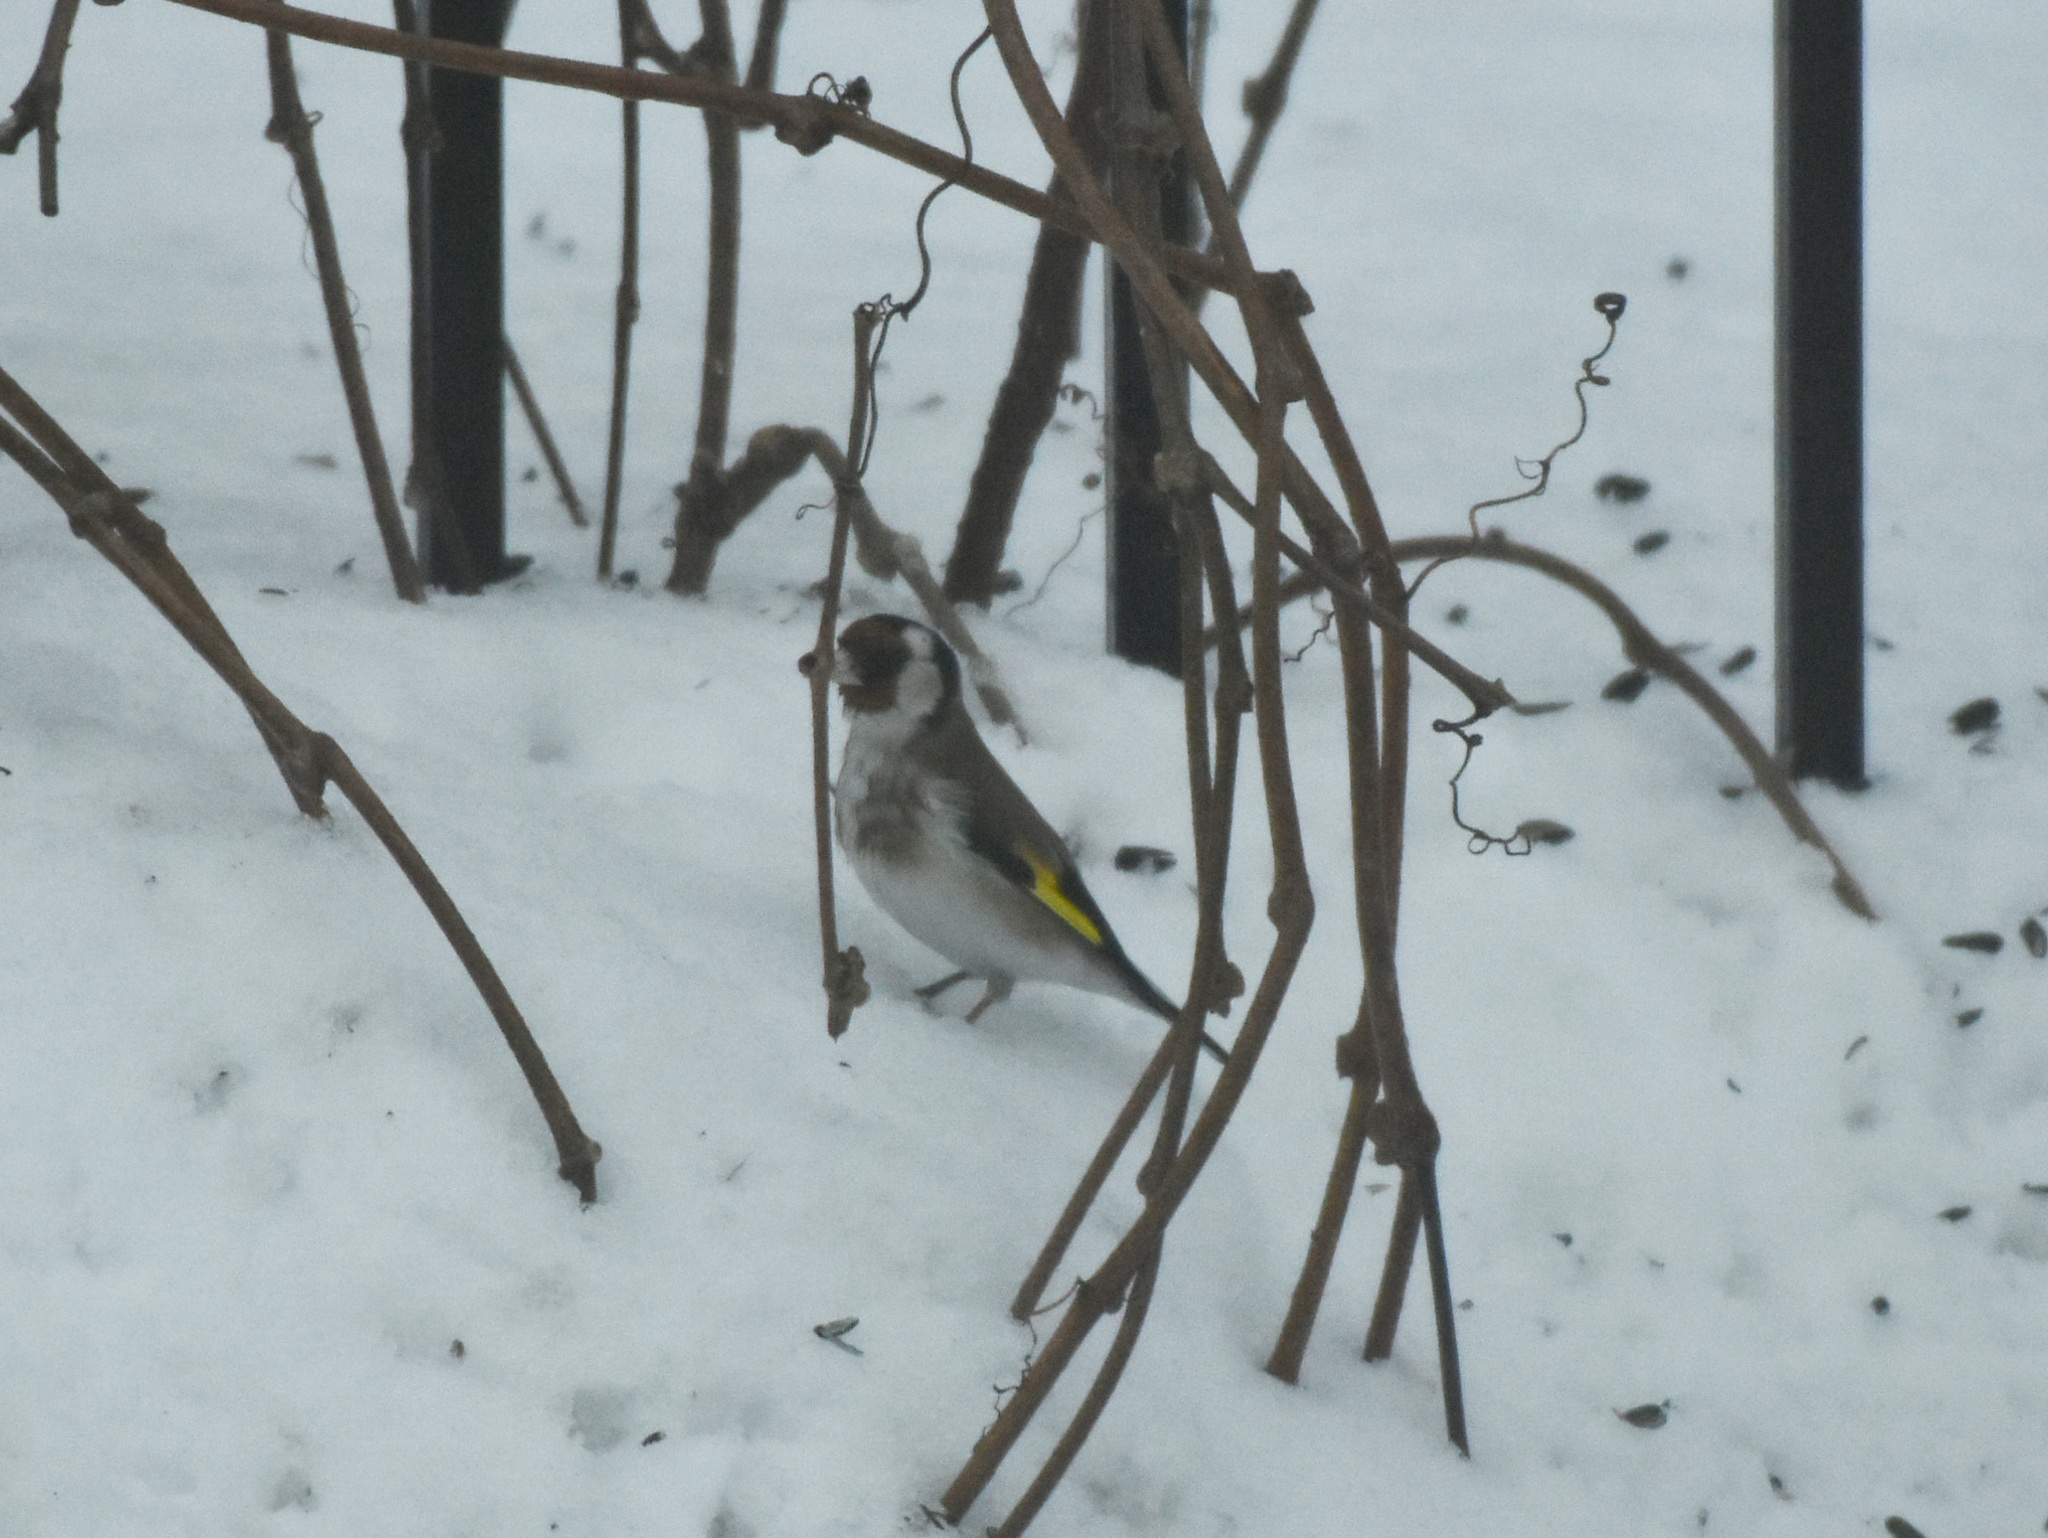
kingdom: Animalia
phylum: Chordata
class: Aves
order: Passeriformes
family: Fringillidae
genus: Carduelis
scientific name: Carduelis carduelis
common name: European goldfinch
